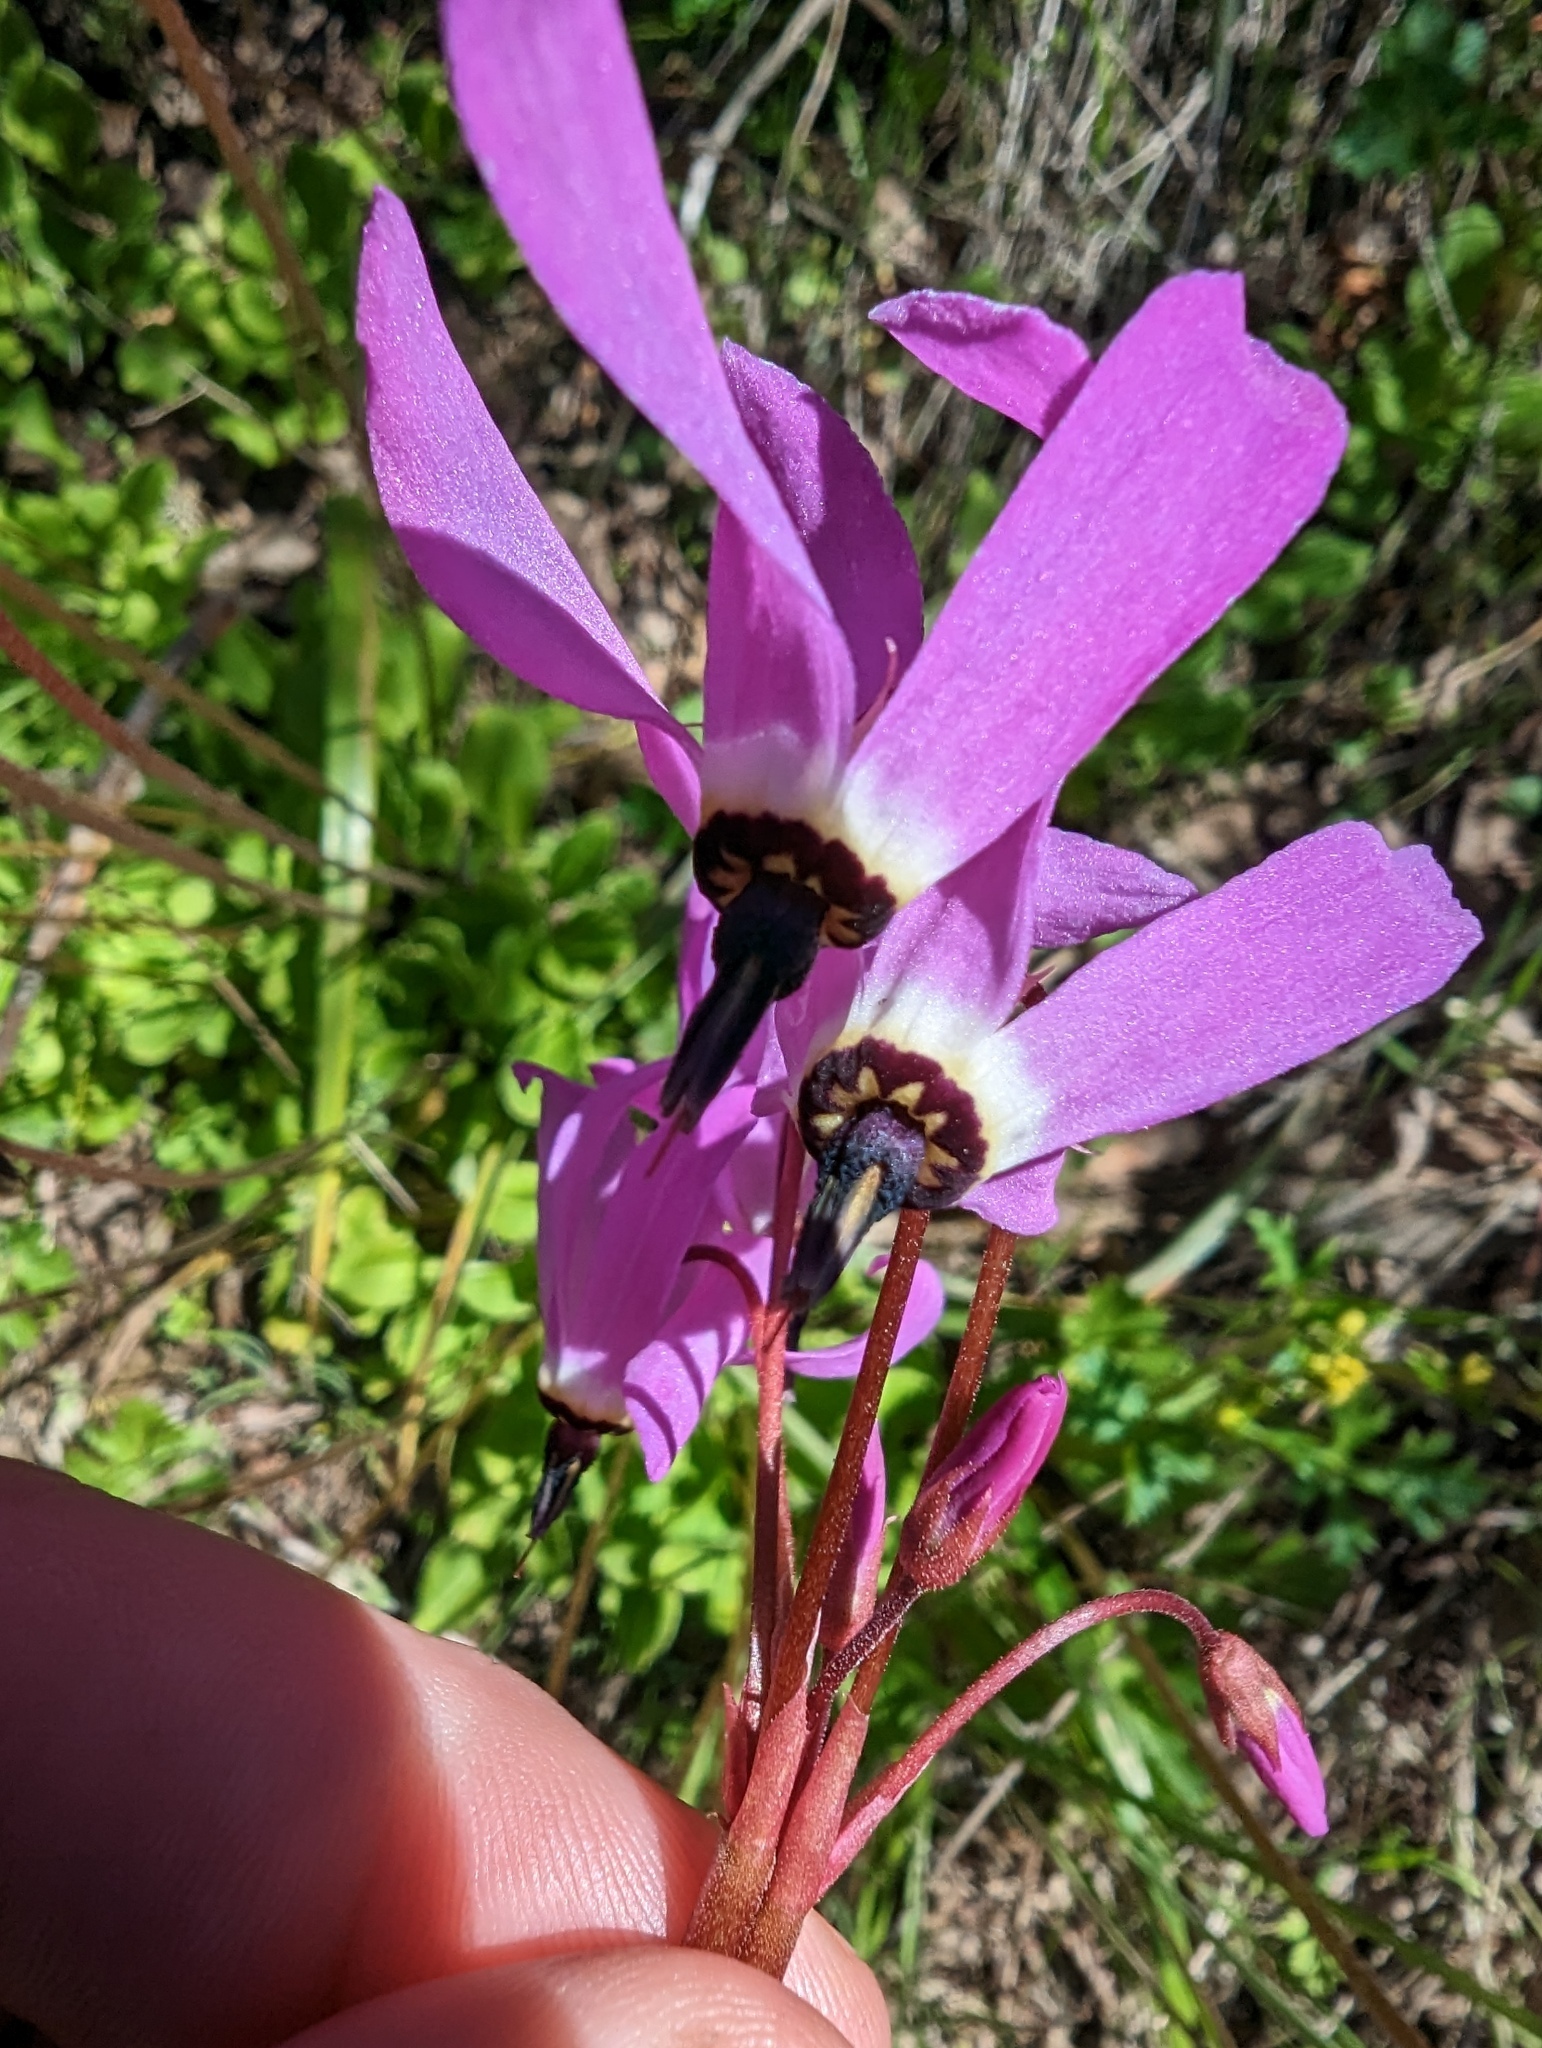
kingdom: Plantae
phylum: Tracheophyta
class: Magnoliopsida
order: Ericales
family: Primulaceae
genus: Dodecatheon
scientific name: Dodecatheon hendersonii
